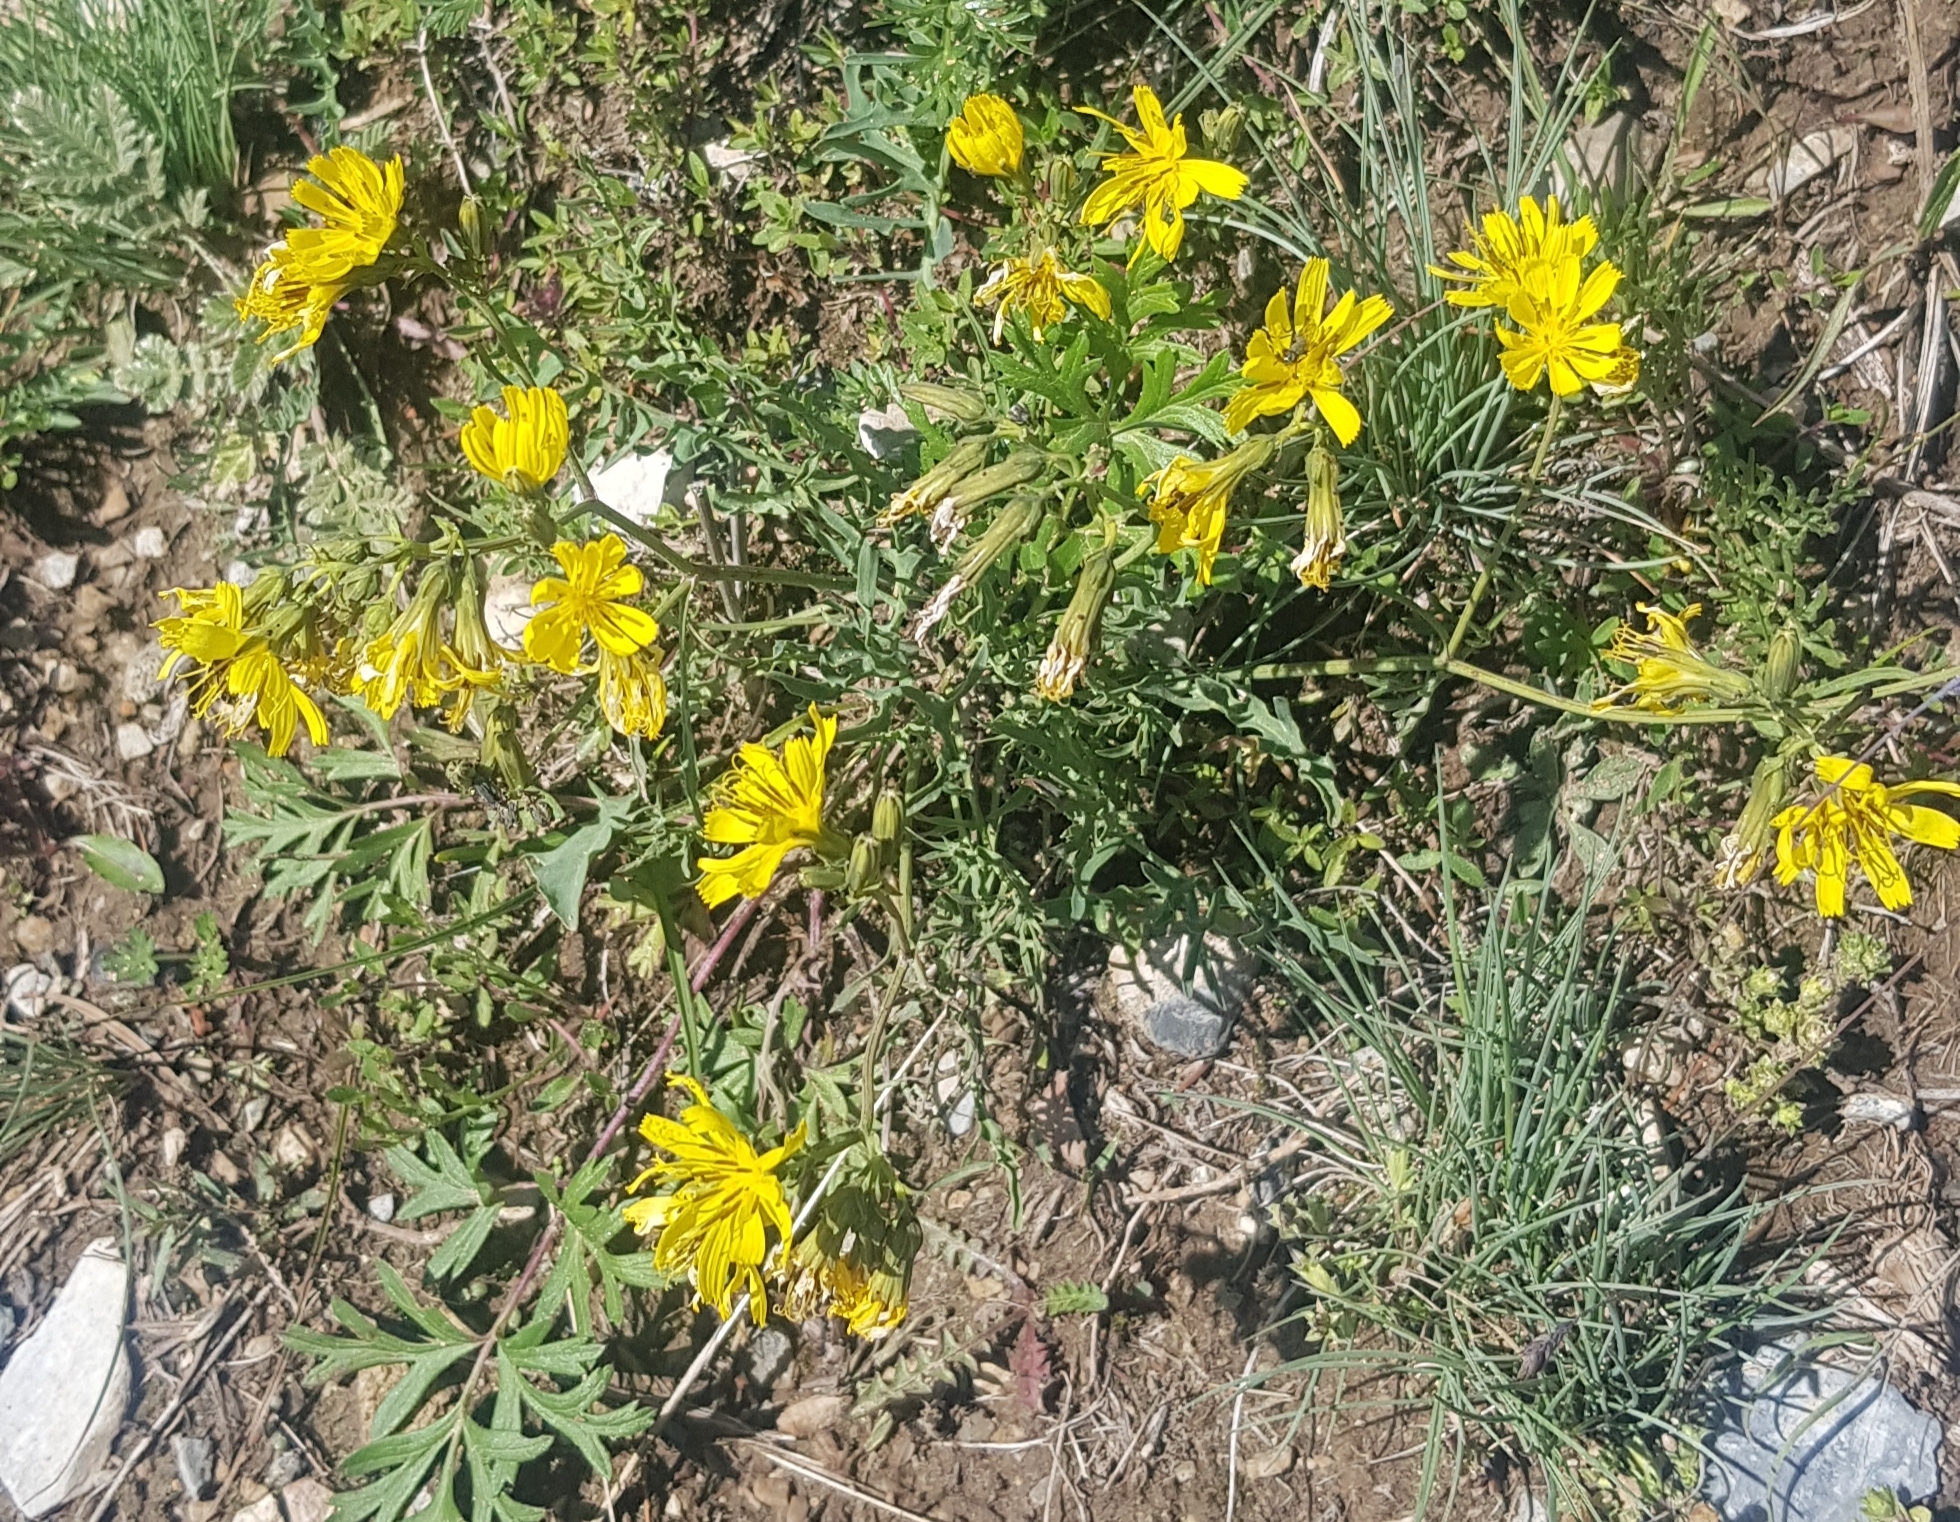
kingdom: Plantae
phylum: Tracheophyta
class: Magnoliopsida
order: Asterales
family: Asteraceae
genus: Scorzonera
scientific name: Scorzonera radiata
